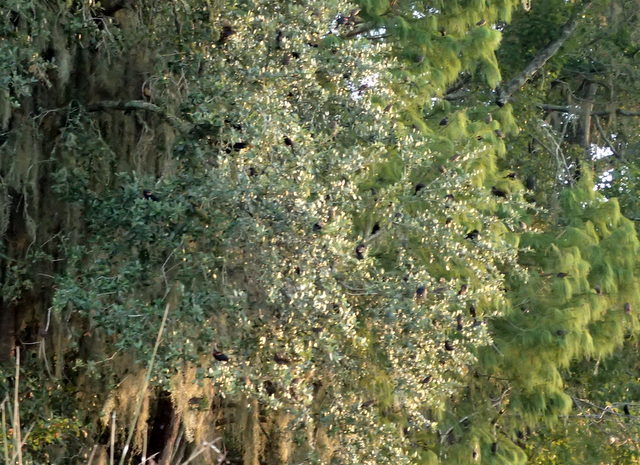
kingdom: Animalia
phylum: Chordata
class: Aves
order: Passeriformes
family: Icteridae
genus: Agelaius
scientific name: Agelaius phoeniceus
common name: Red-winged blackbird
